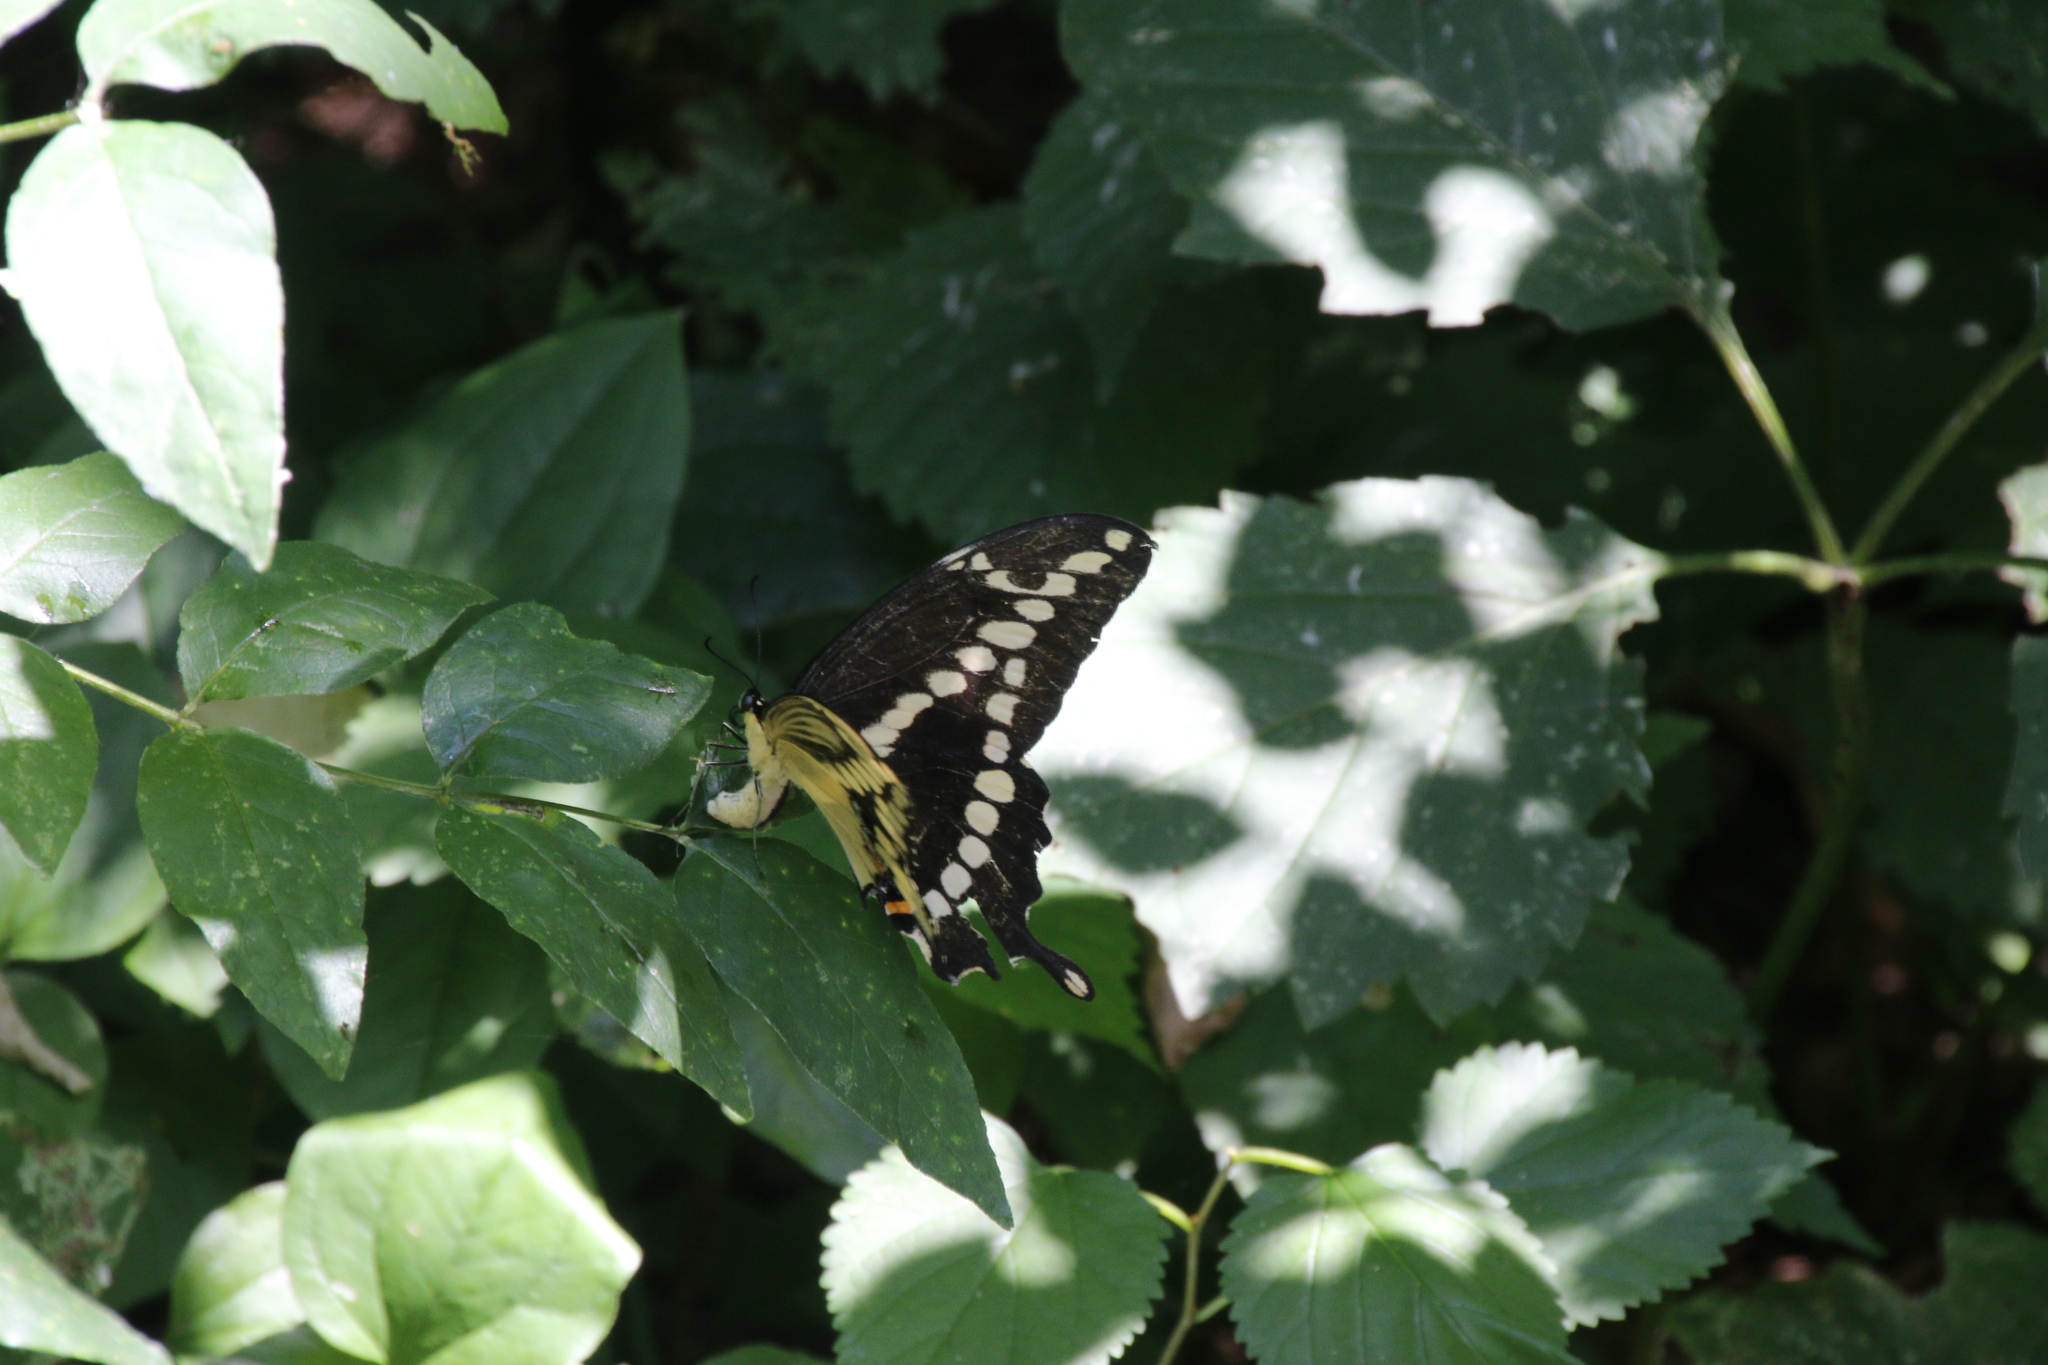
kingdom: Animalia
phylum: Arthropoda
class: Insecta
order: Lepidoptera
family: Papilionidae
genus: Papilio
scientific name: Papilio cresphontes
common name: Giant swallowtail
